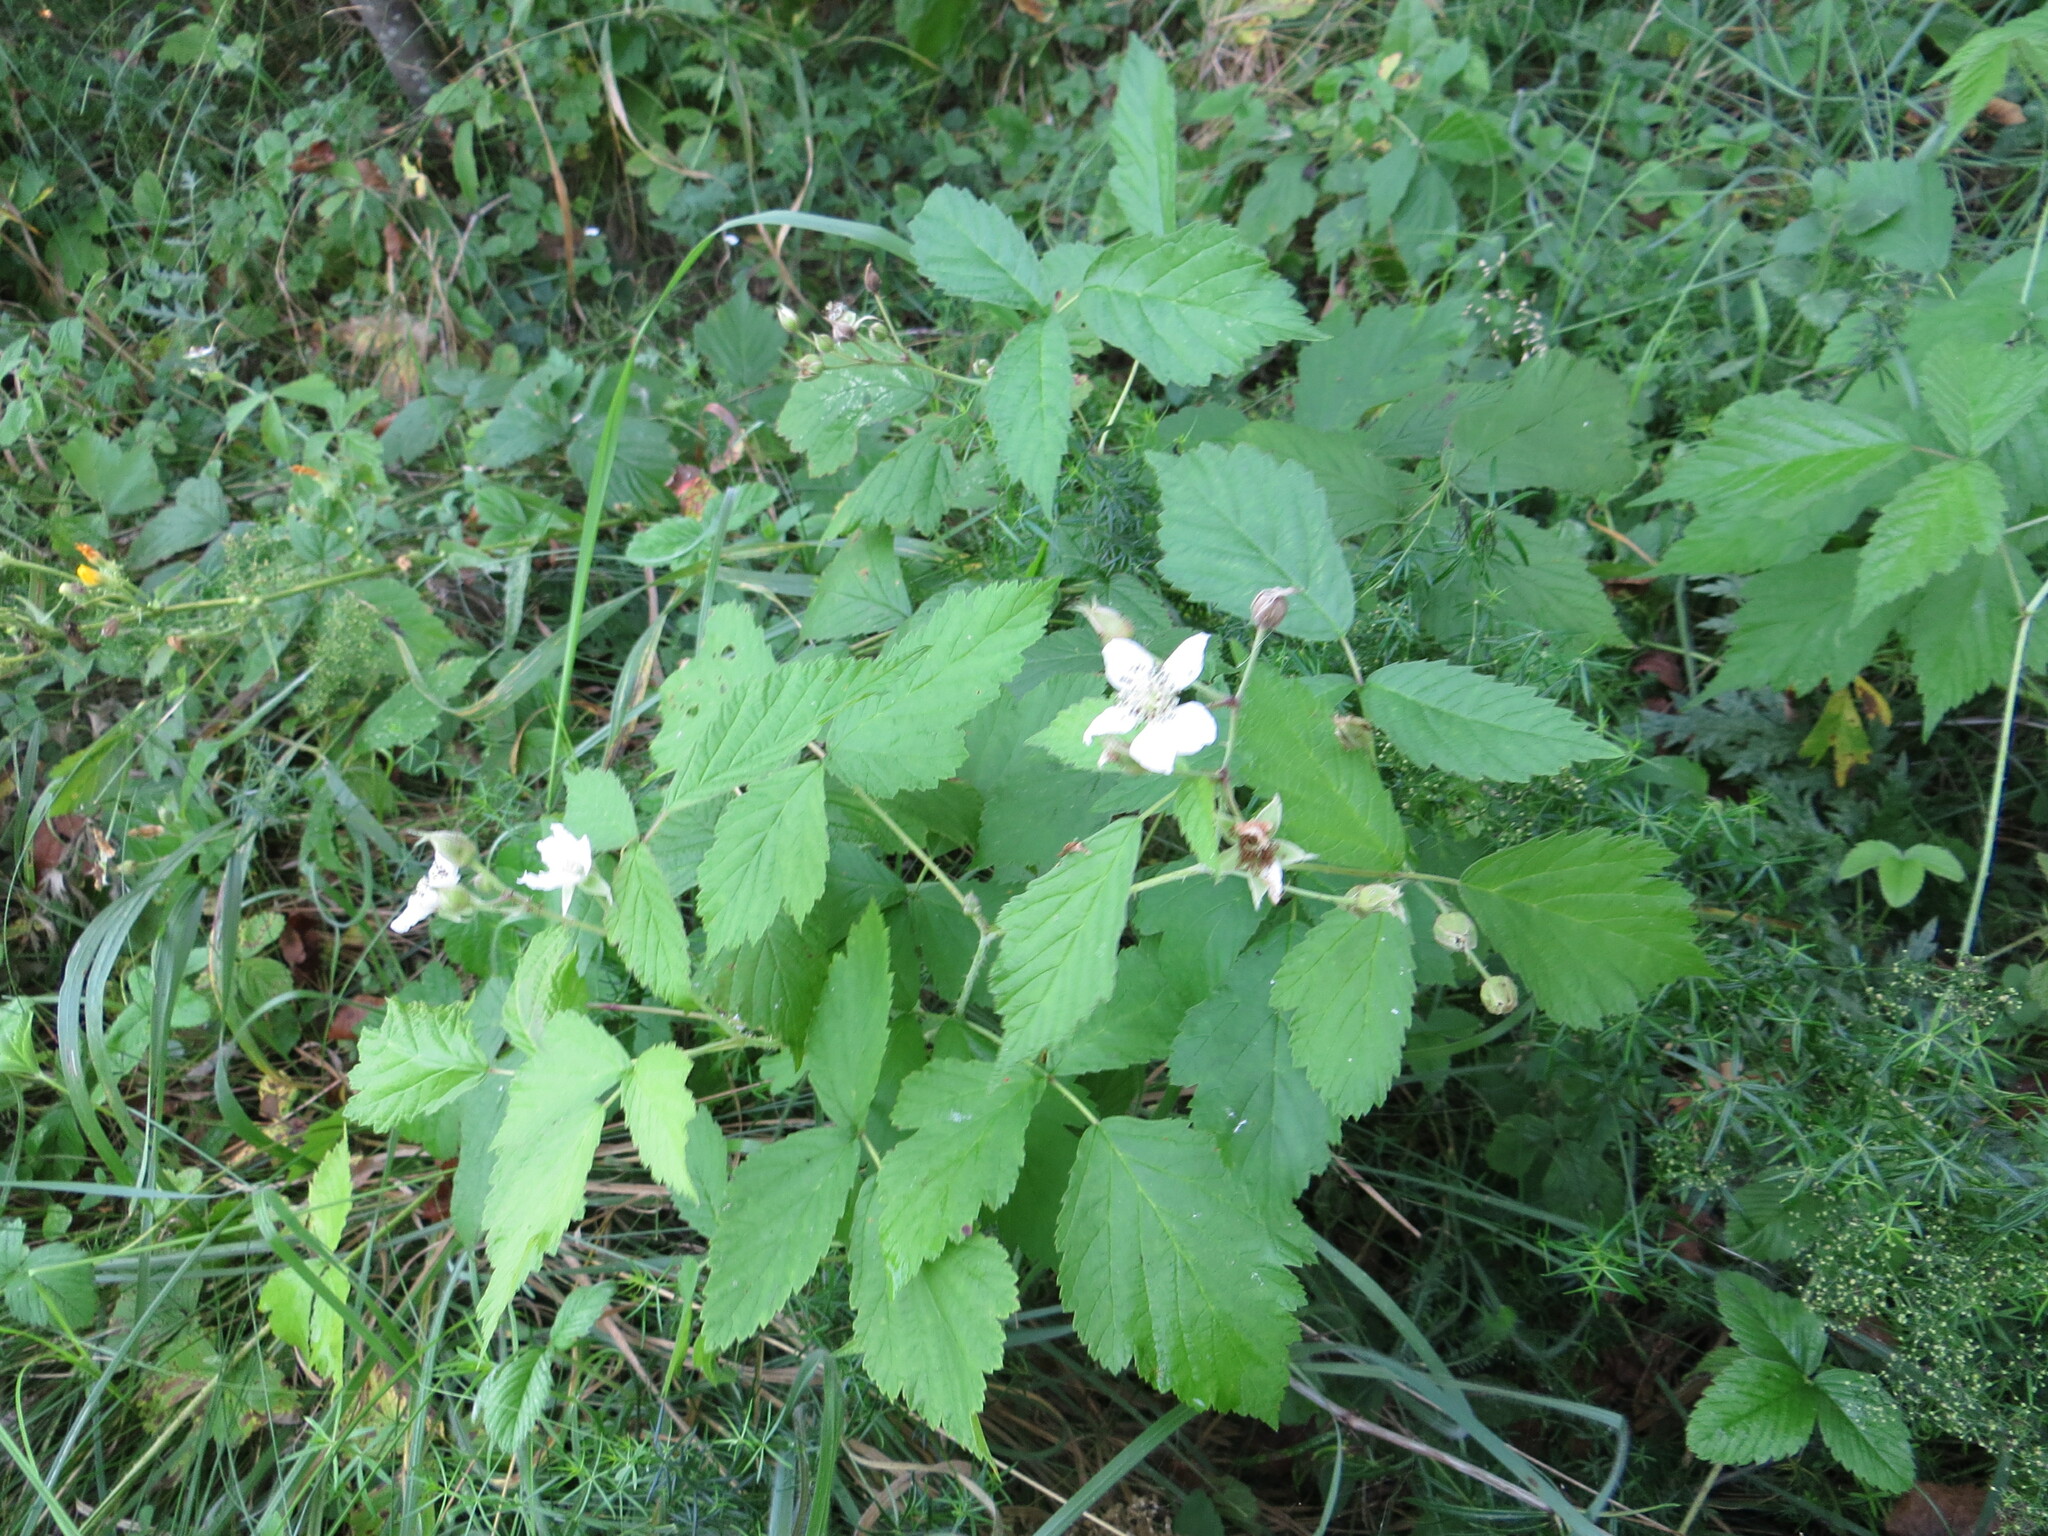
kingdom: Plantae
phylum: Tracheophyta
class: Magnoliopsida
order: Rosales
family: Rosaceae
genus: Rubus
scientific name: Rubus caesius
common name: Dewberry
